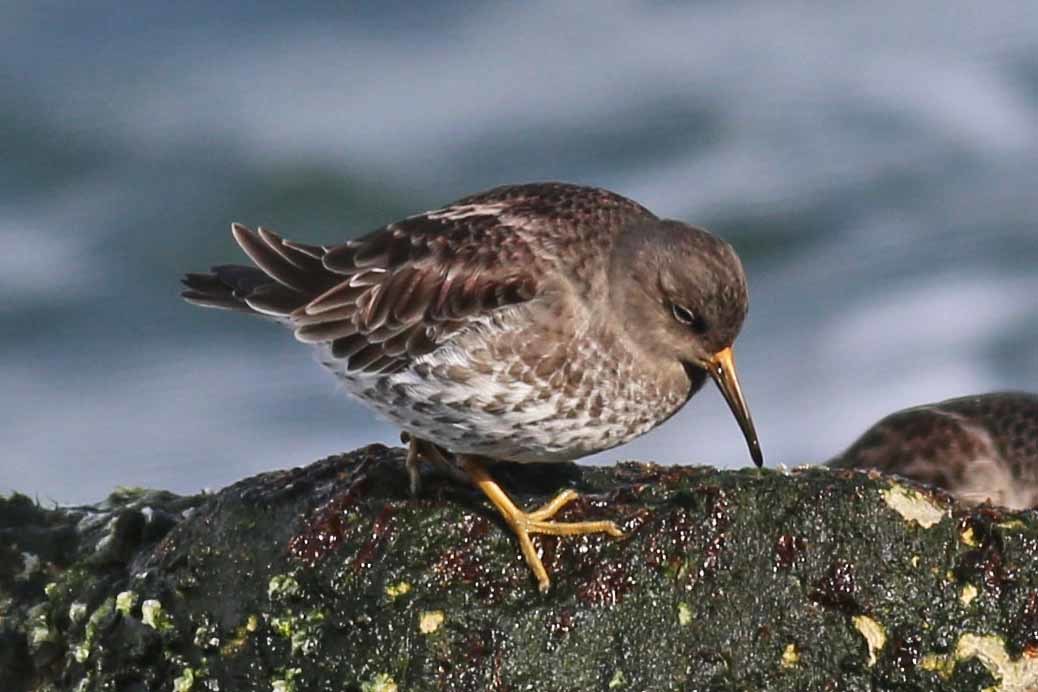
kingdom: Animalia
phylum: Chordata
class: Aves
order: Charadriiformes
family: Scolopacidae
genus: Calidris
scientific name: Calidris maritima
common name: Purple sandpiper
